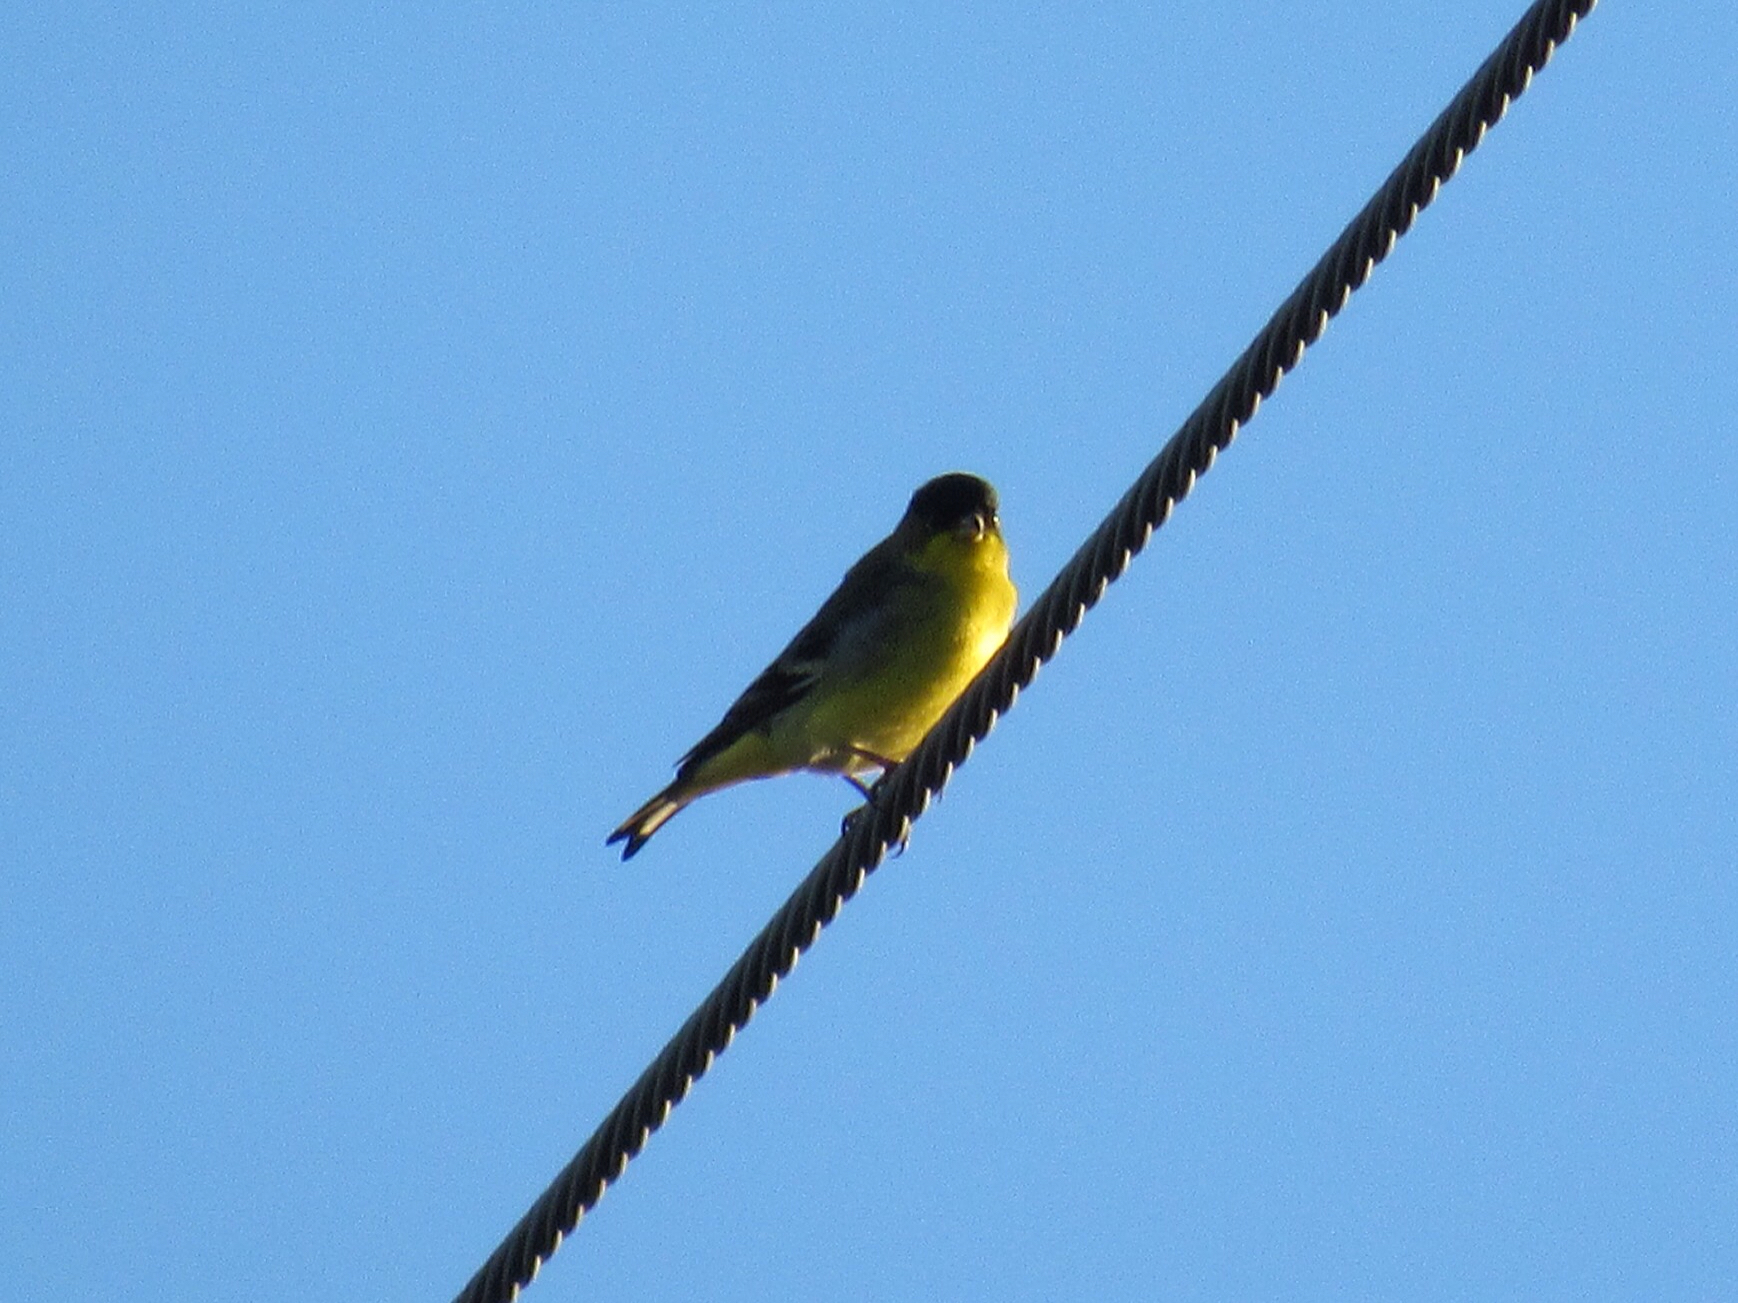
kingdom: Animalia
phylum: Chordata
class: Aves
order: Passeriformes
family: Fringillidae
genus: Spinus
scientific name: Spinus psaltria
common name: Lesser goldfinch
